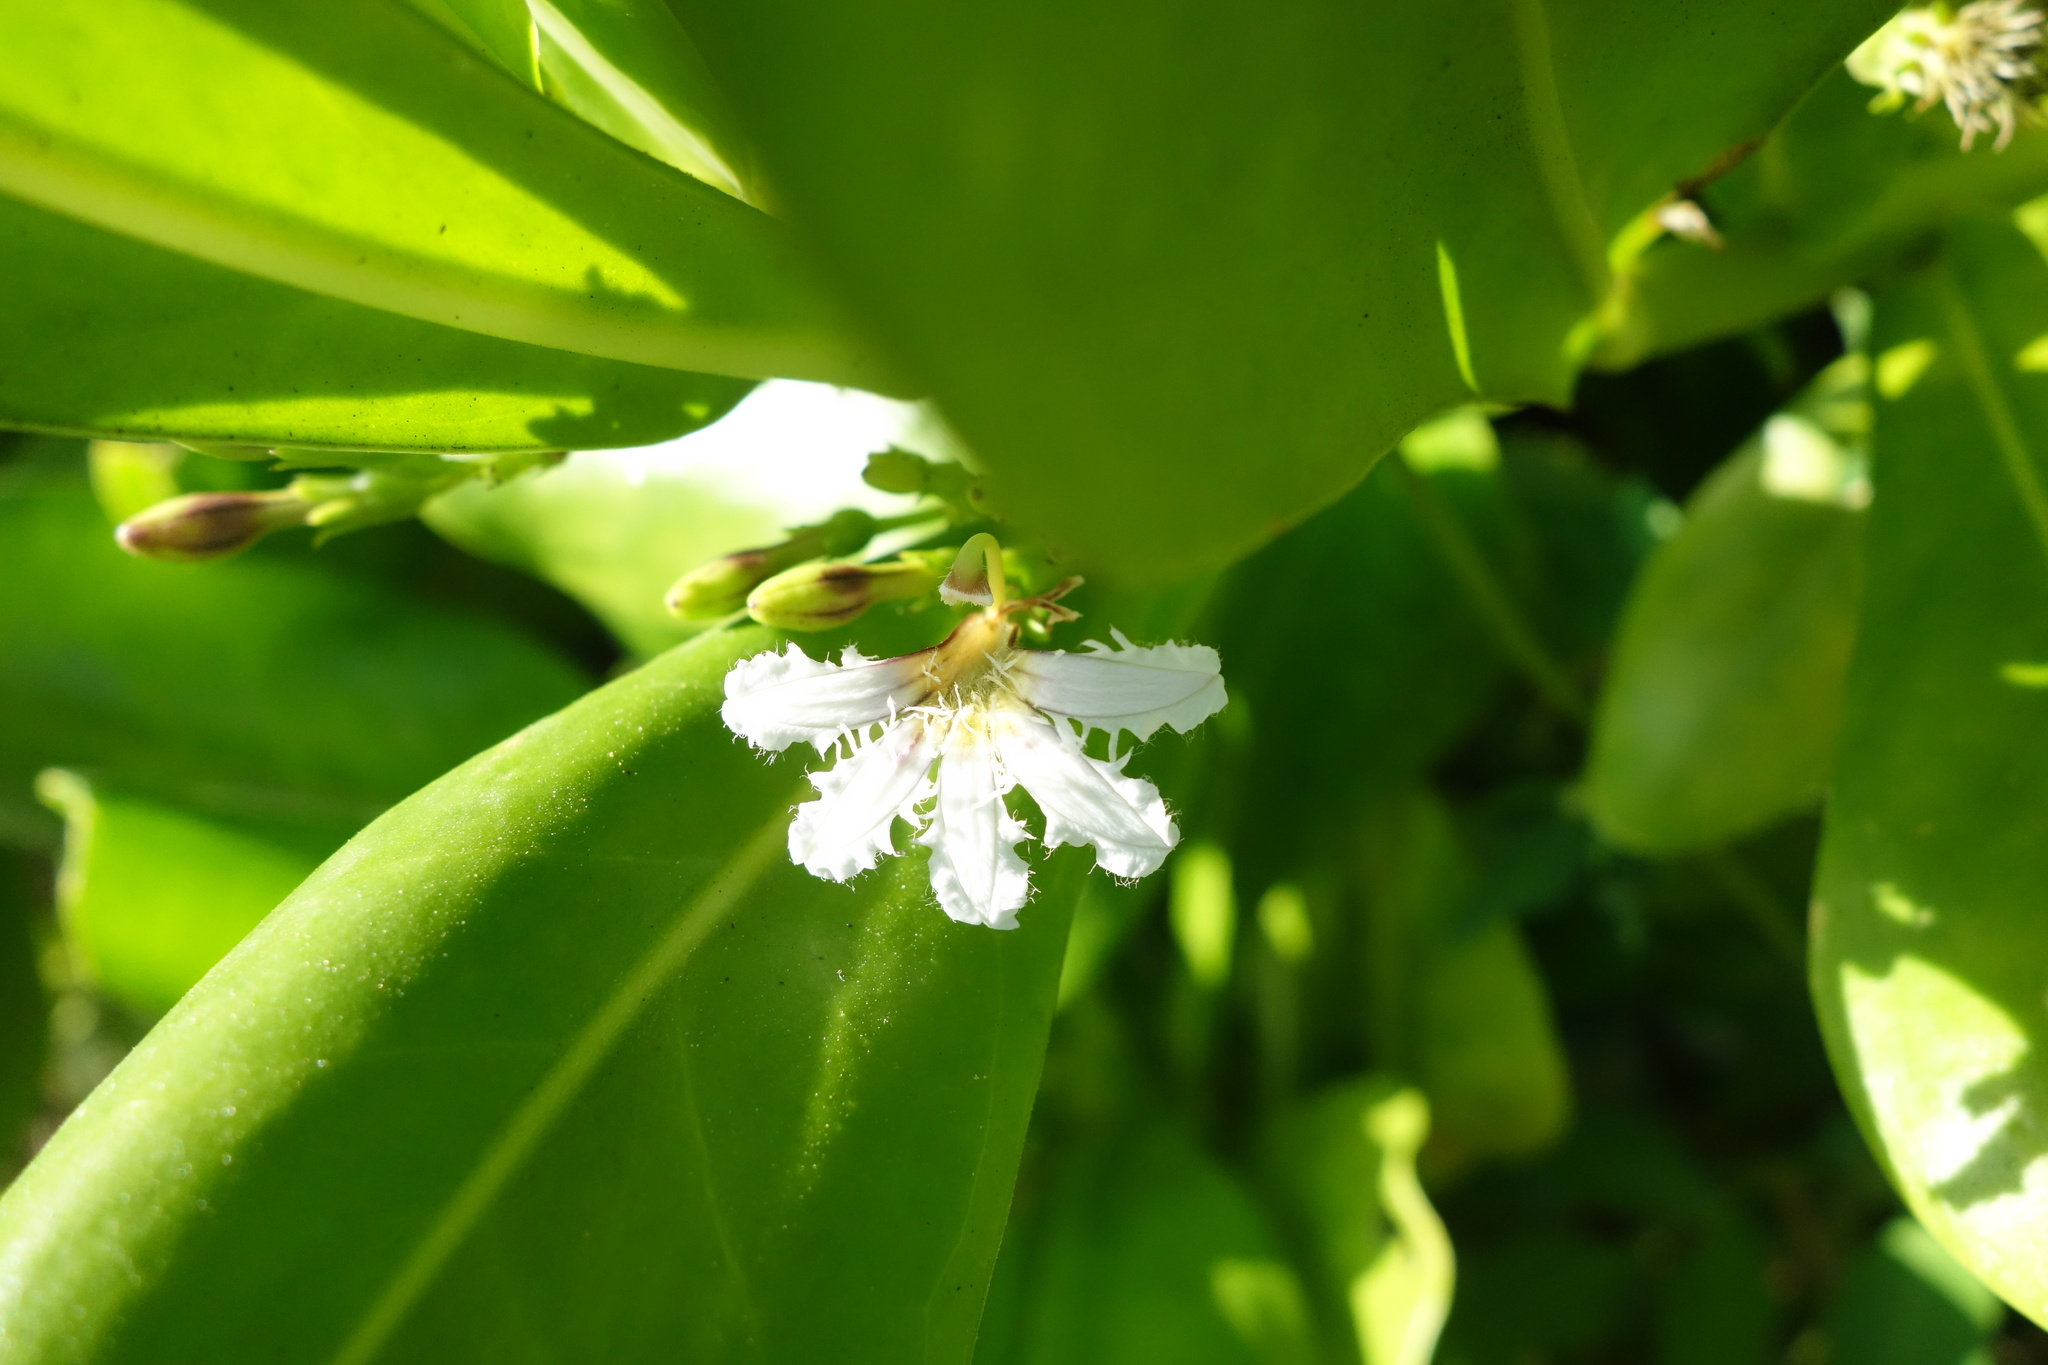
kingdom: Plantae
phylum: Tracheophyta
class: Magnoliopsida
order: Asterales
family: Goodeniaceae
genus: Scaevola
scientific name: Scaevola taccada
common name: Sea lettucetree
